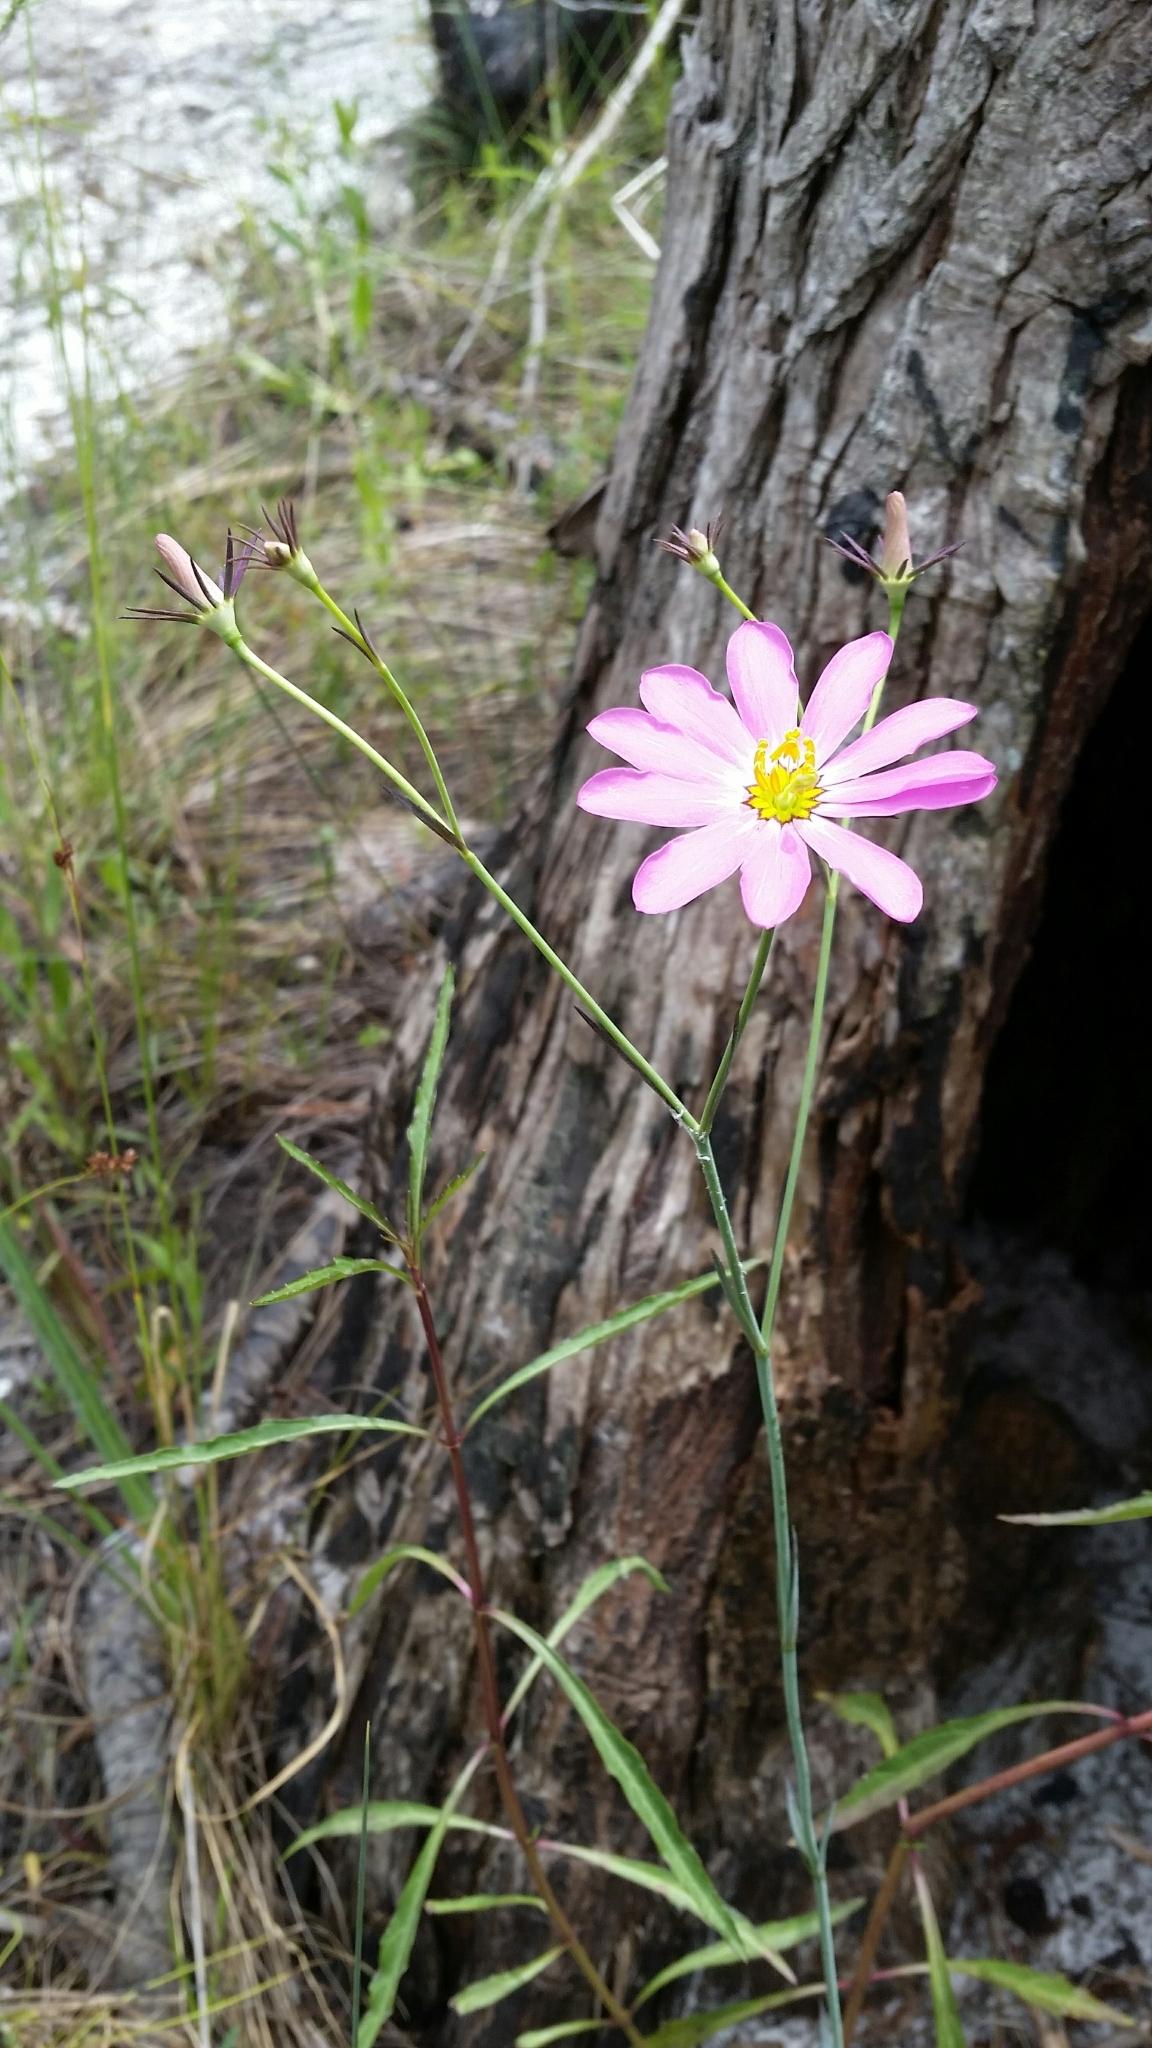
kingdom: Plantae
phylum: Tracheophyta
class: Magnoliopsida
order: Gentianales
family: Gentianaceae
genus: Sabatia
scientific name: Sabatia decandra
